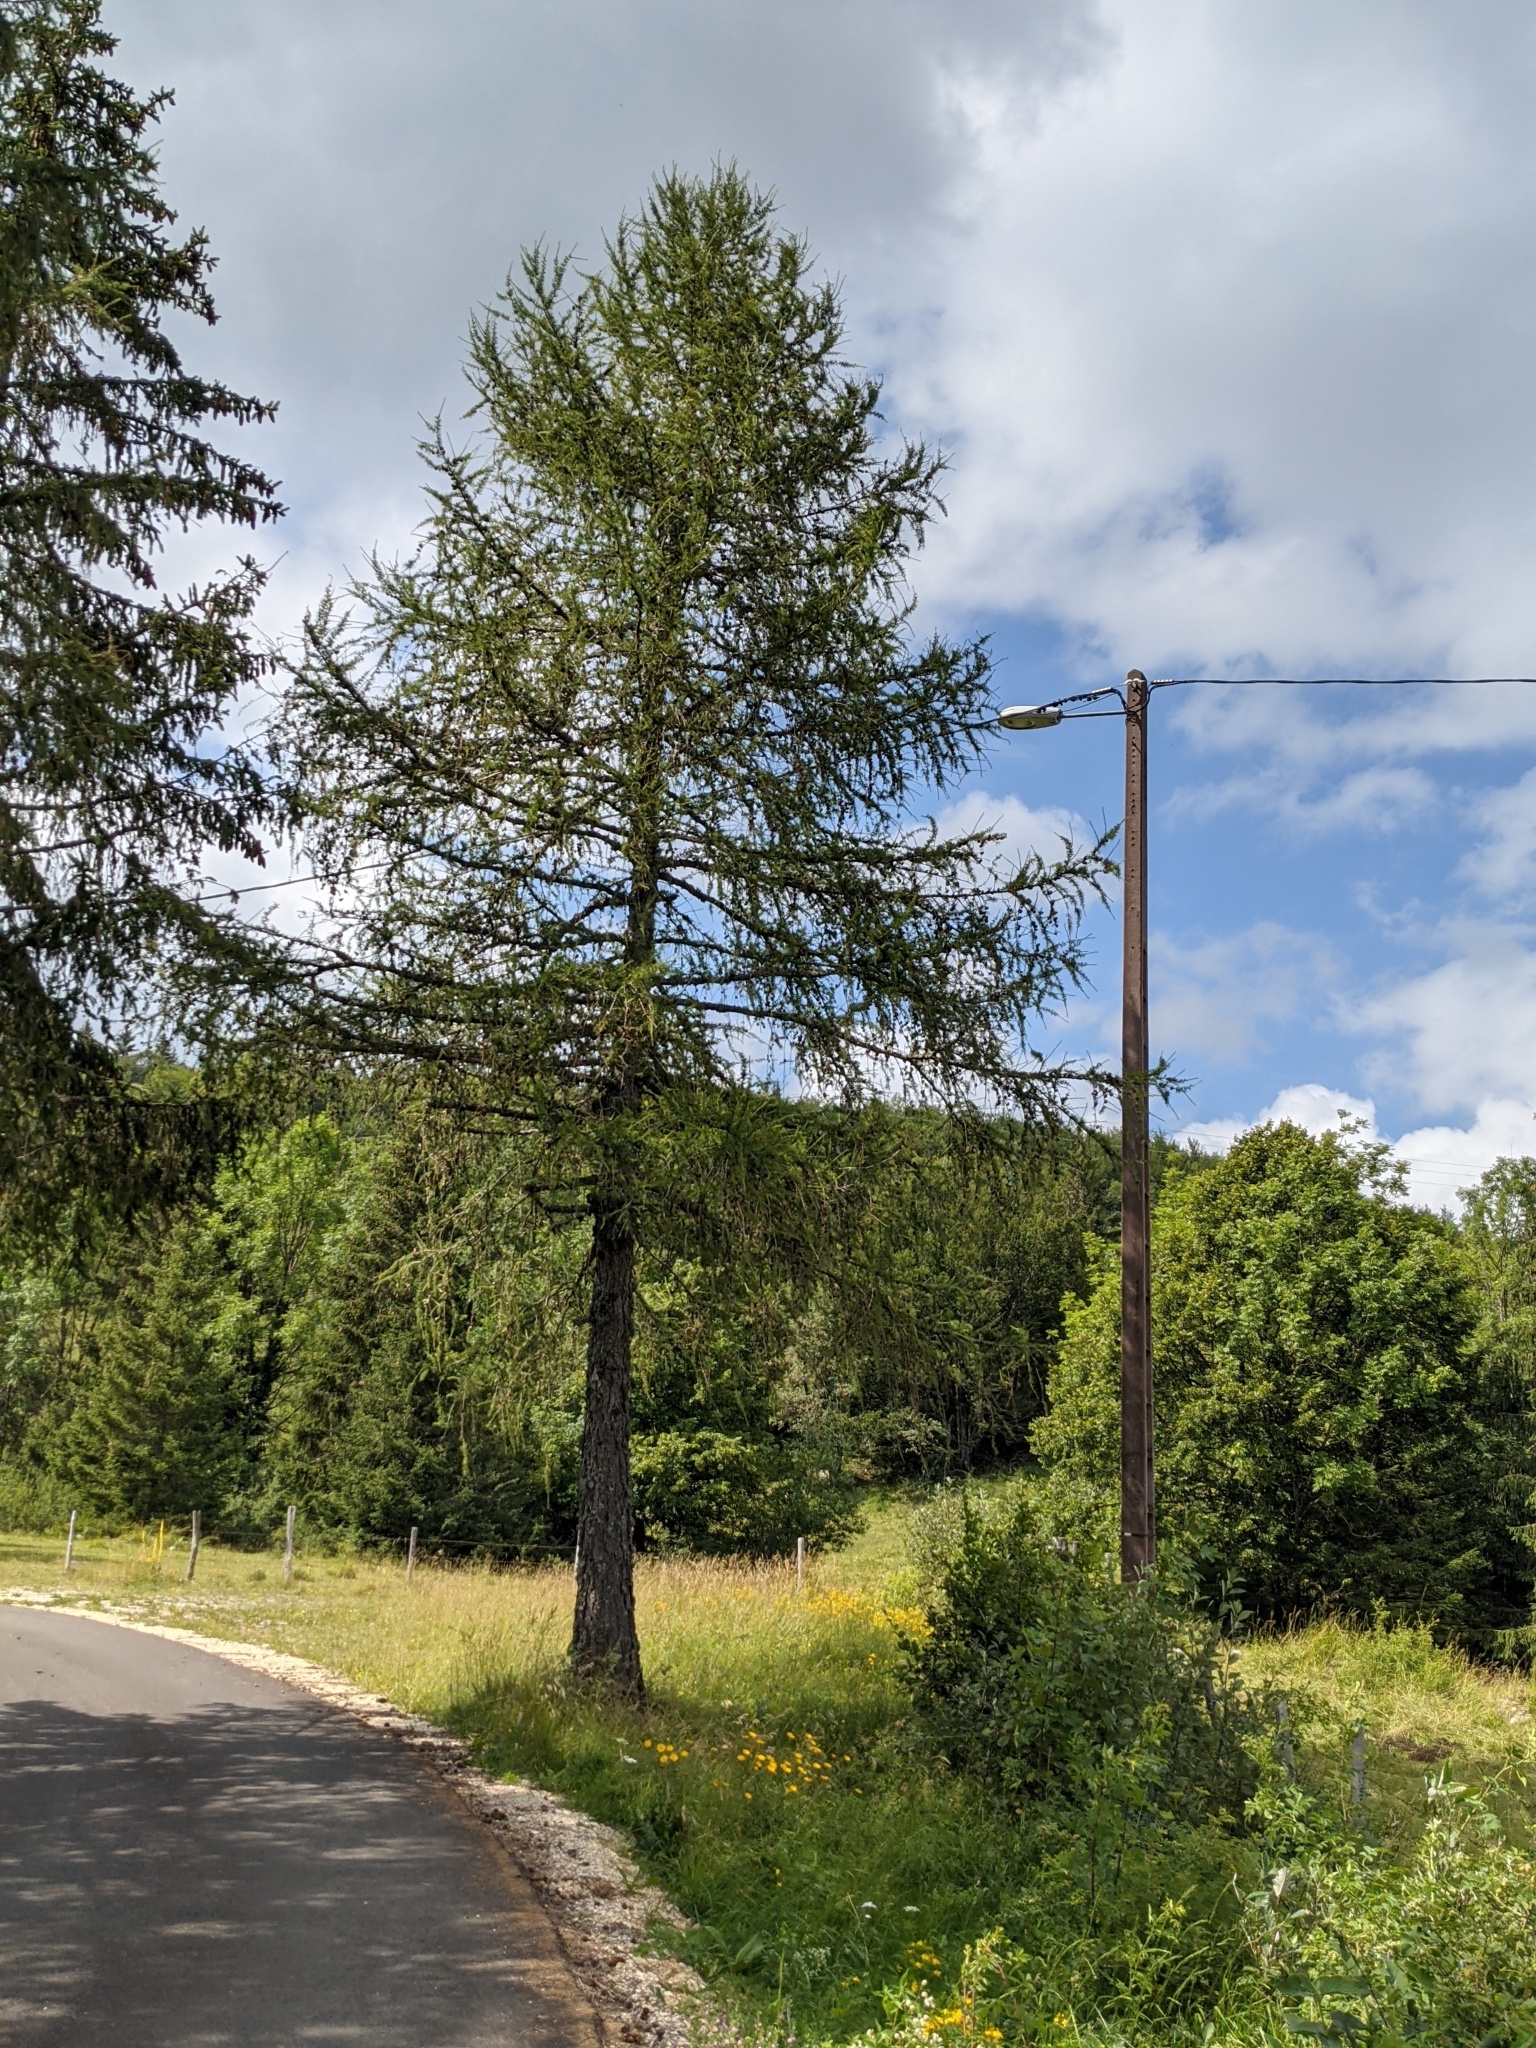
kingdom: Plantae
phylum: Tracheophyta
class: Pinopsida
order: Pinales
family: Pinaceae
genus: Larix
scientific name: Larix decidua
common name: European larch
